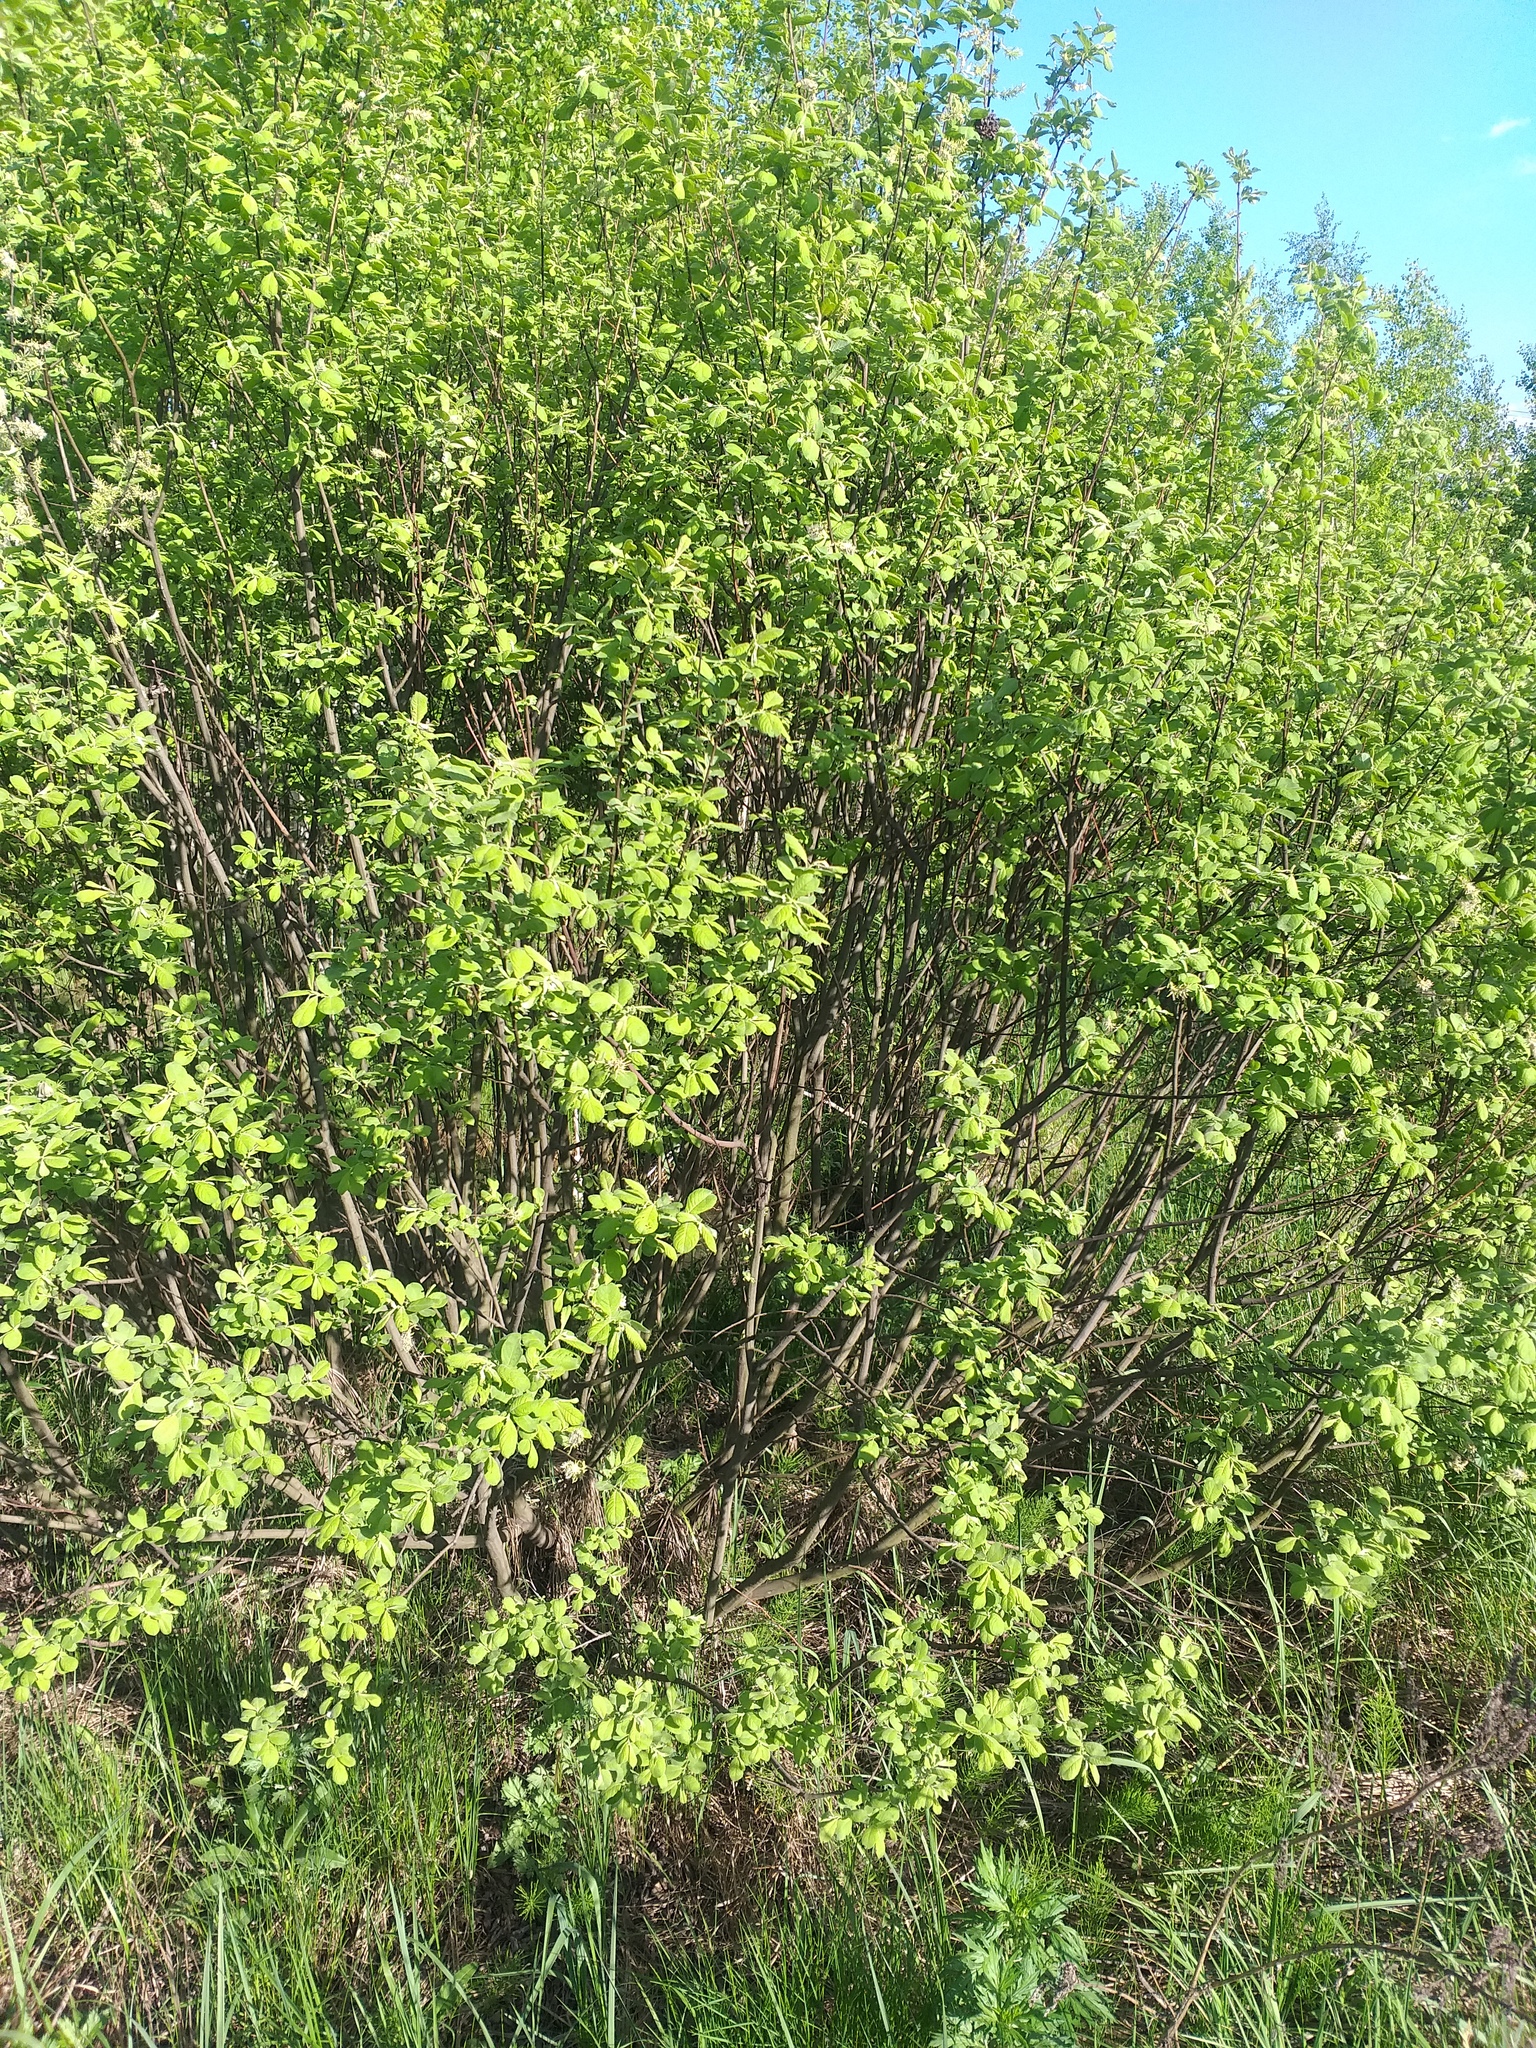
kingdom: Plantae
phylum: Tracheophyta
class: Magnoliopsida
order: Malpighiales
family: Salicaceae
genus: Salix
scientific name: Salix aurita
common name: Eared willow
